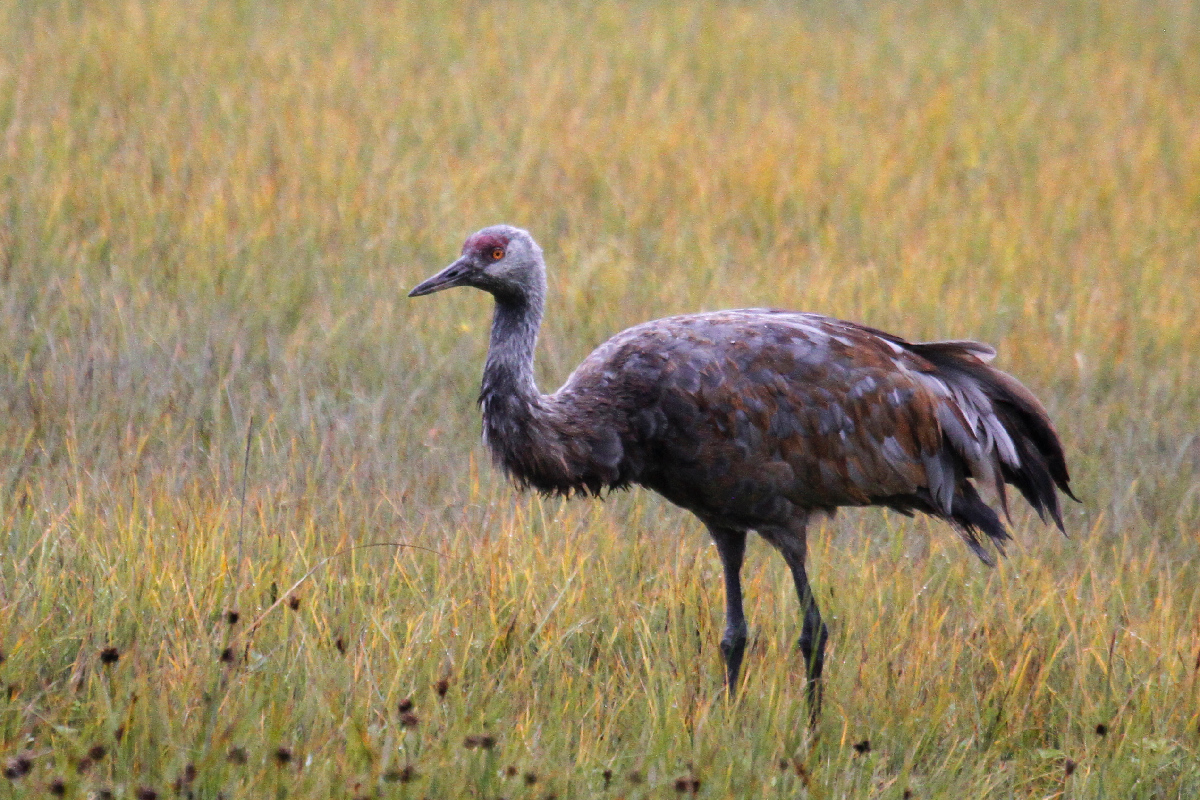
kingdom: Animalia
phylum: Chordata
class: Aves
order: Gruiformes
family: Gruidae
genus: Grus
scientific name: Grus canadensis
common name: Sandhill crane
